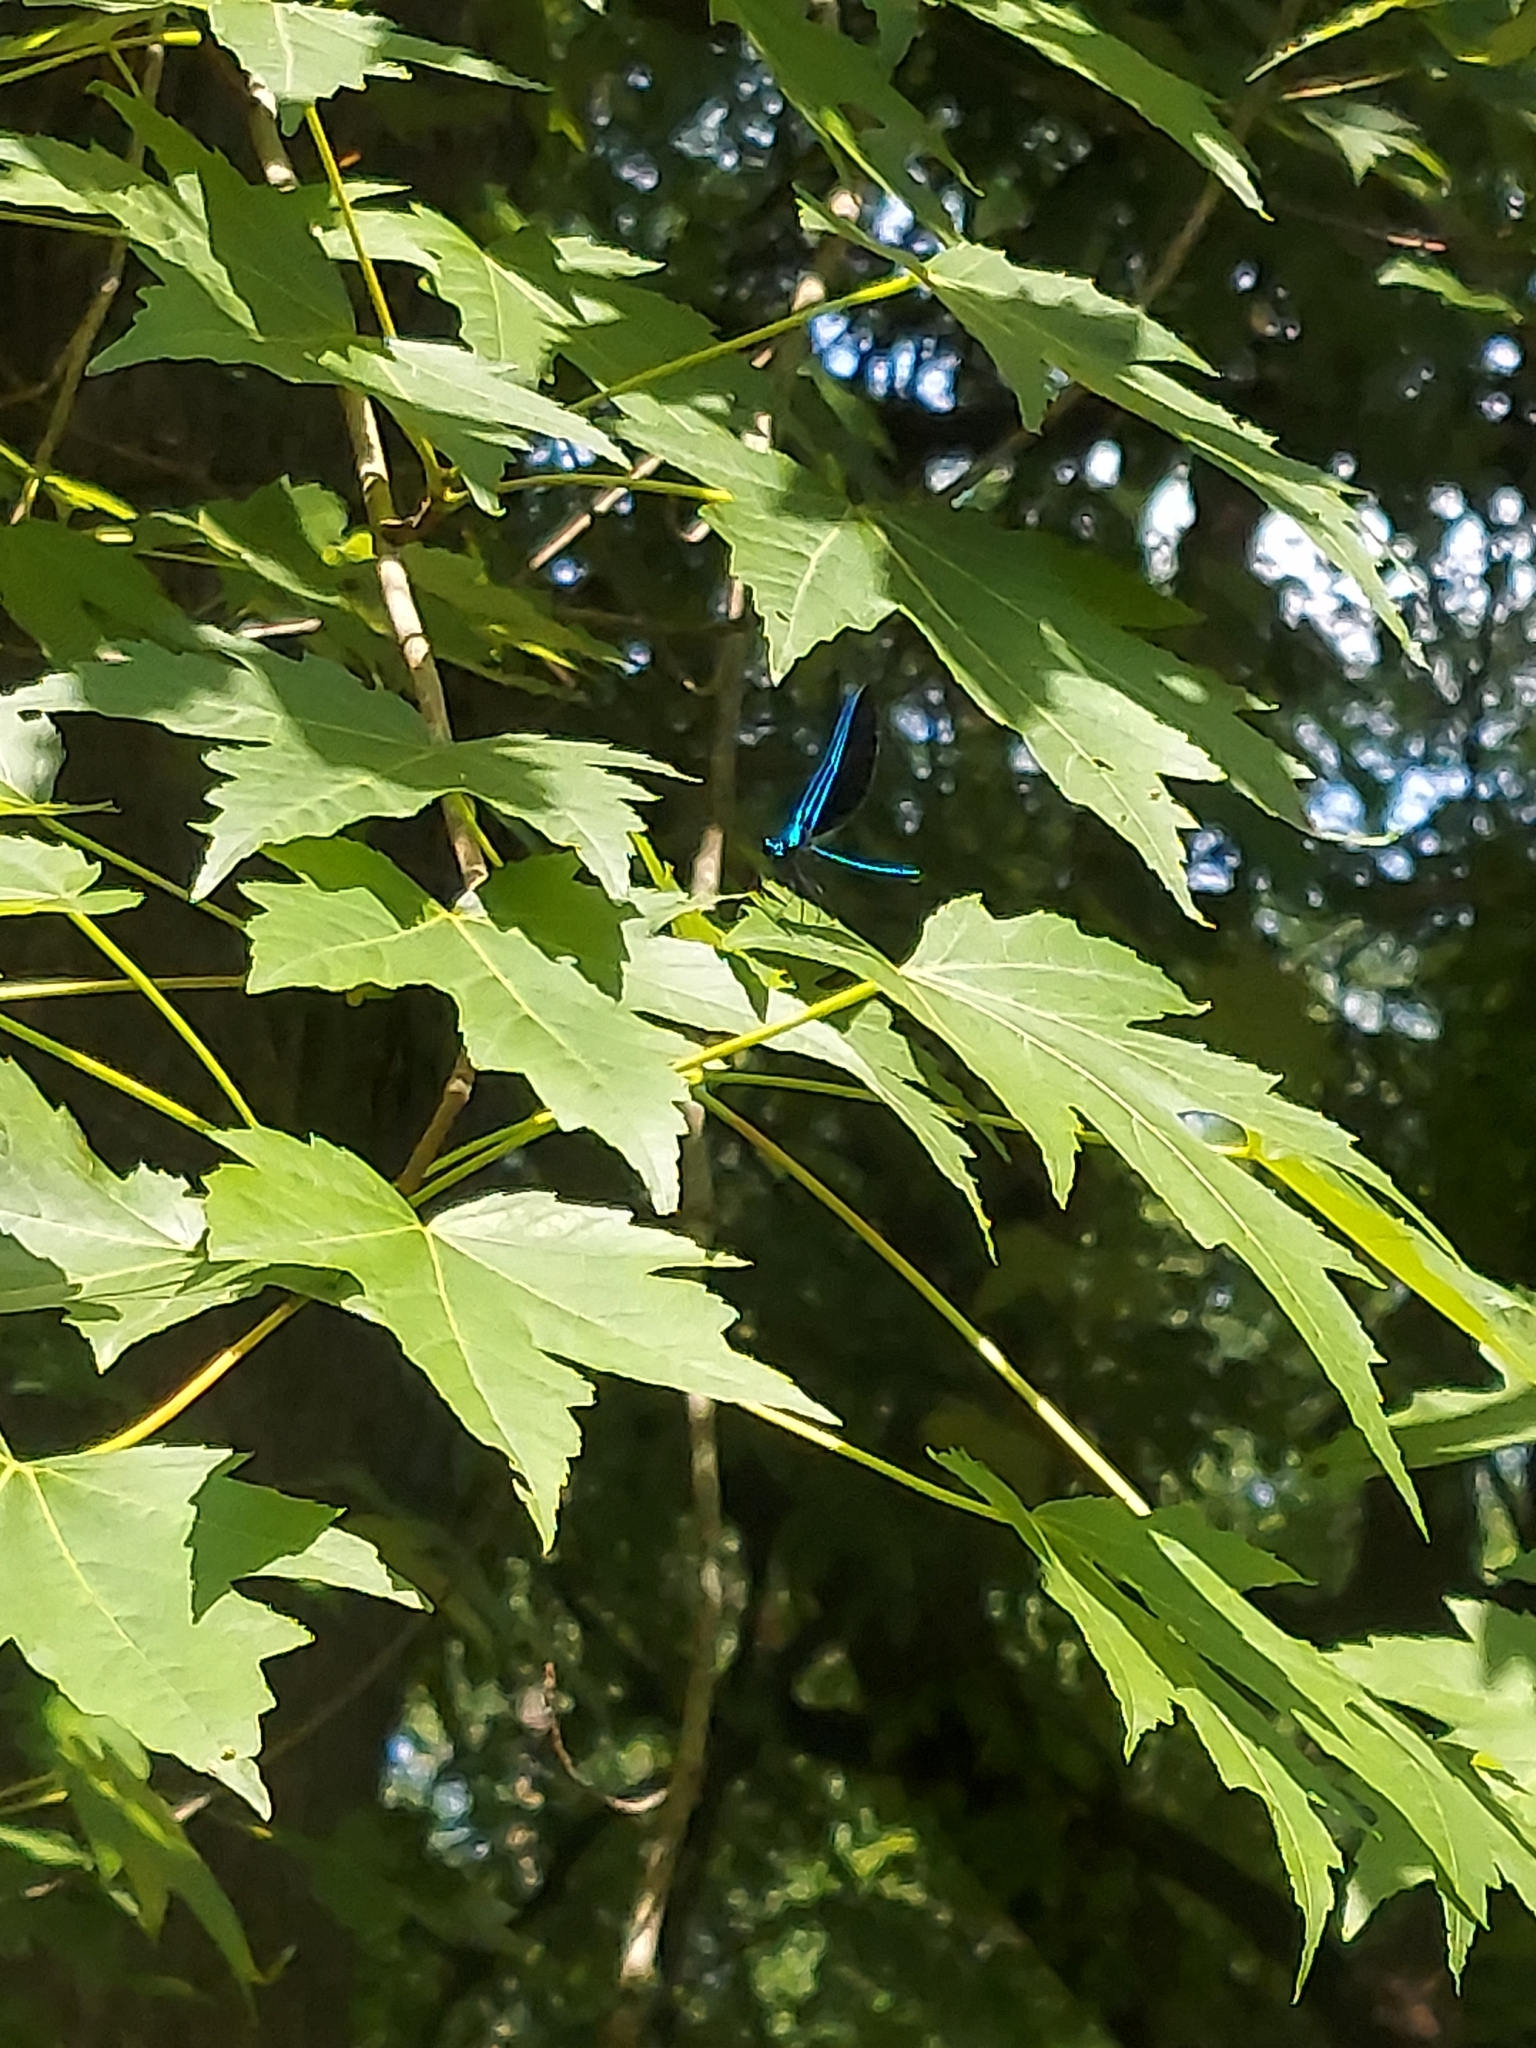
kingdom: Animalia
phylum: Arthropoda
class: Insecta
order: Odonata
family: Calopterygidae
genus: Calopteryx
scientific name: Calopteryx maculata
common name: Ebony jewelwing
